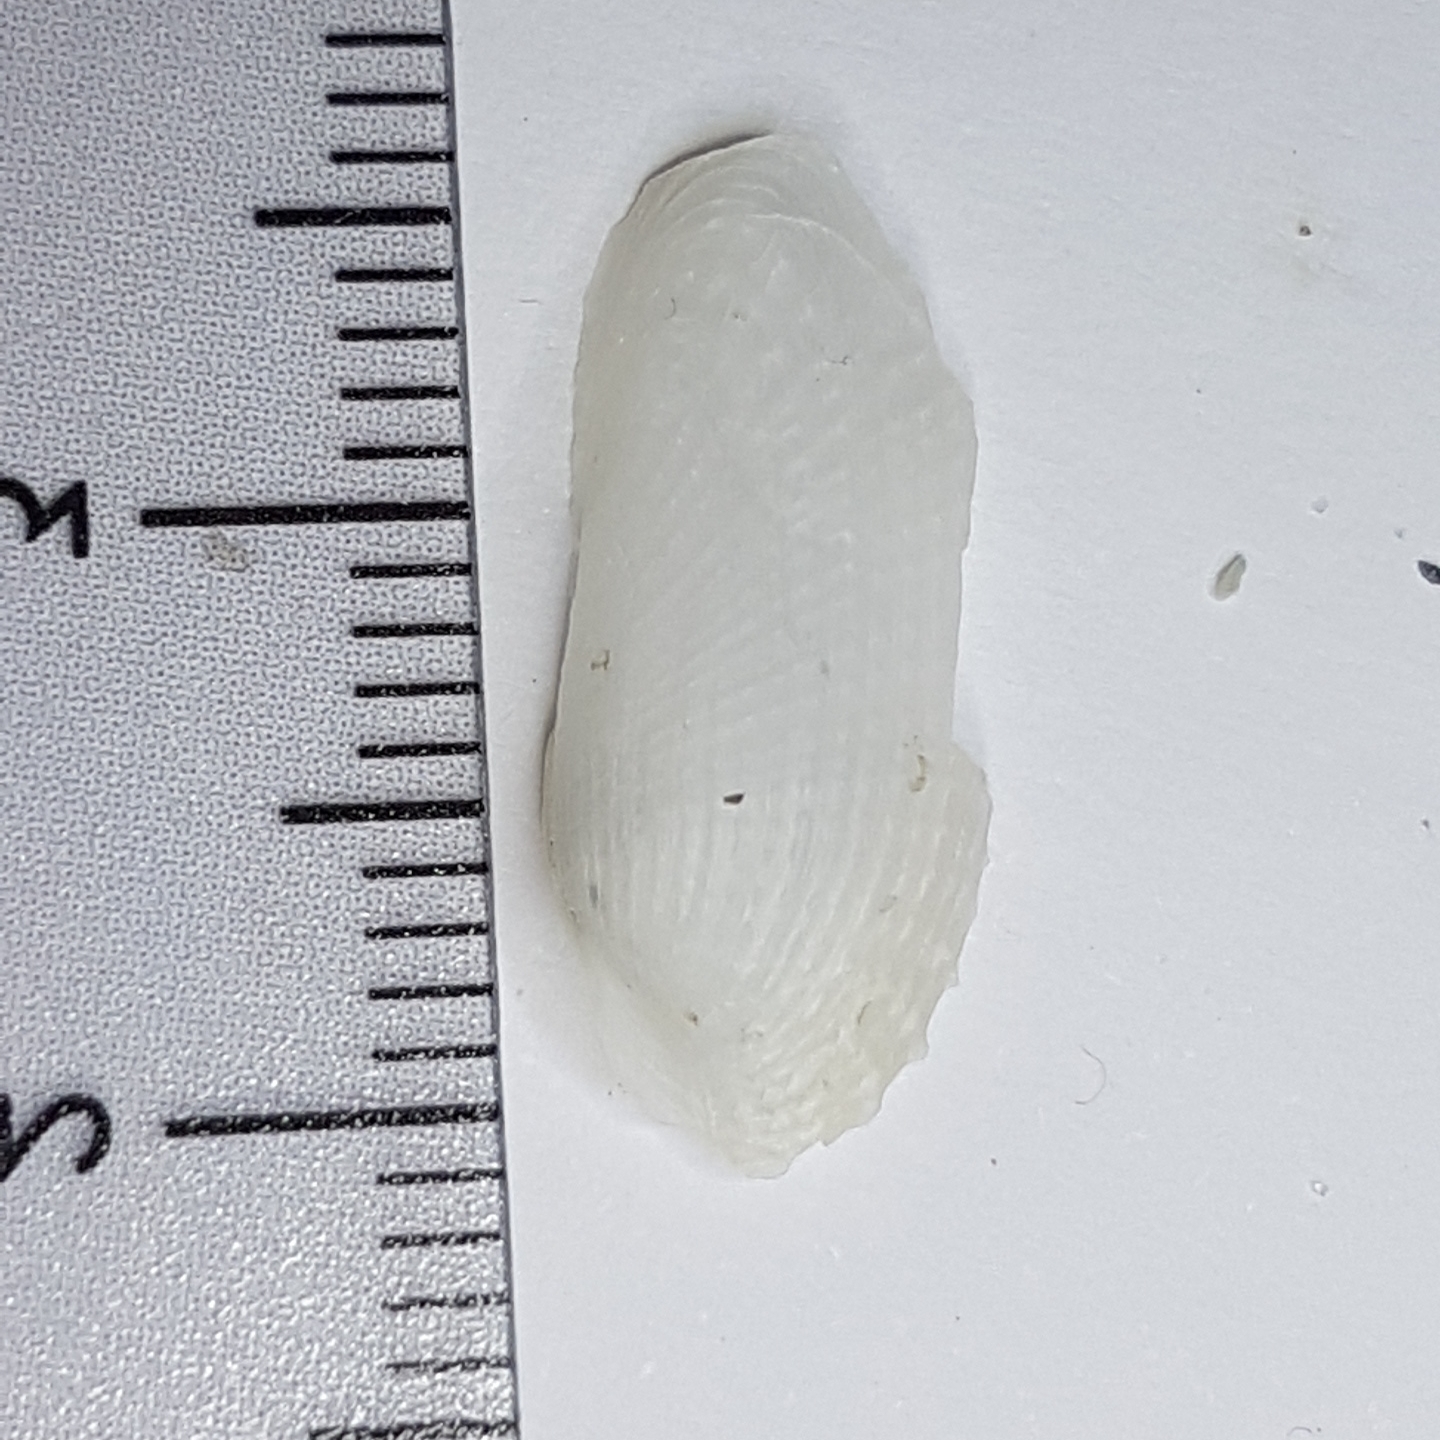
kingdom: Animalia
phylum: Mollusca
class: Bivalvia
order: Myida
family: Pholadidae
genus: Barnea
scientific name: Barnea candida
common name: White piddock
